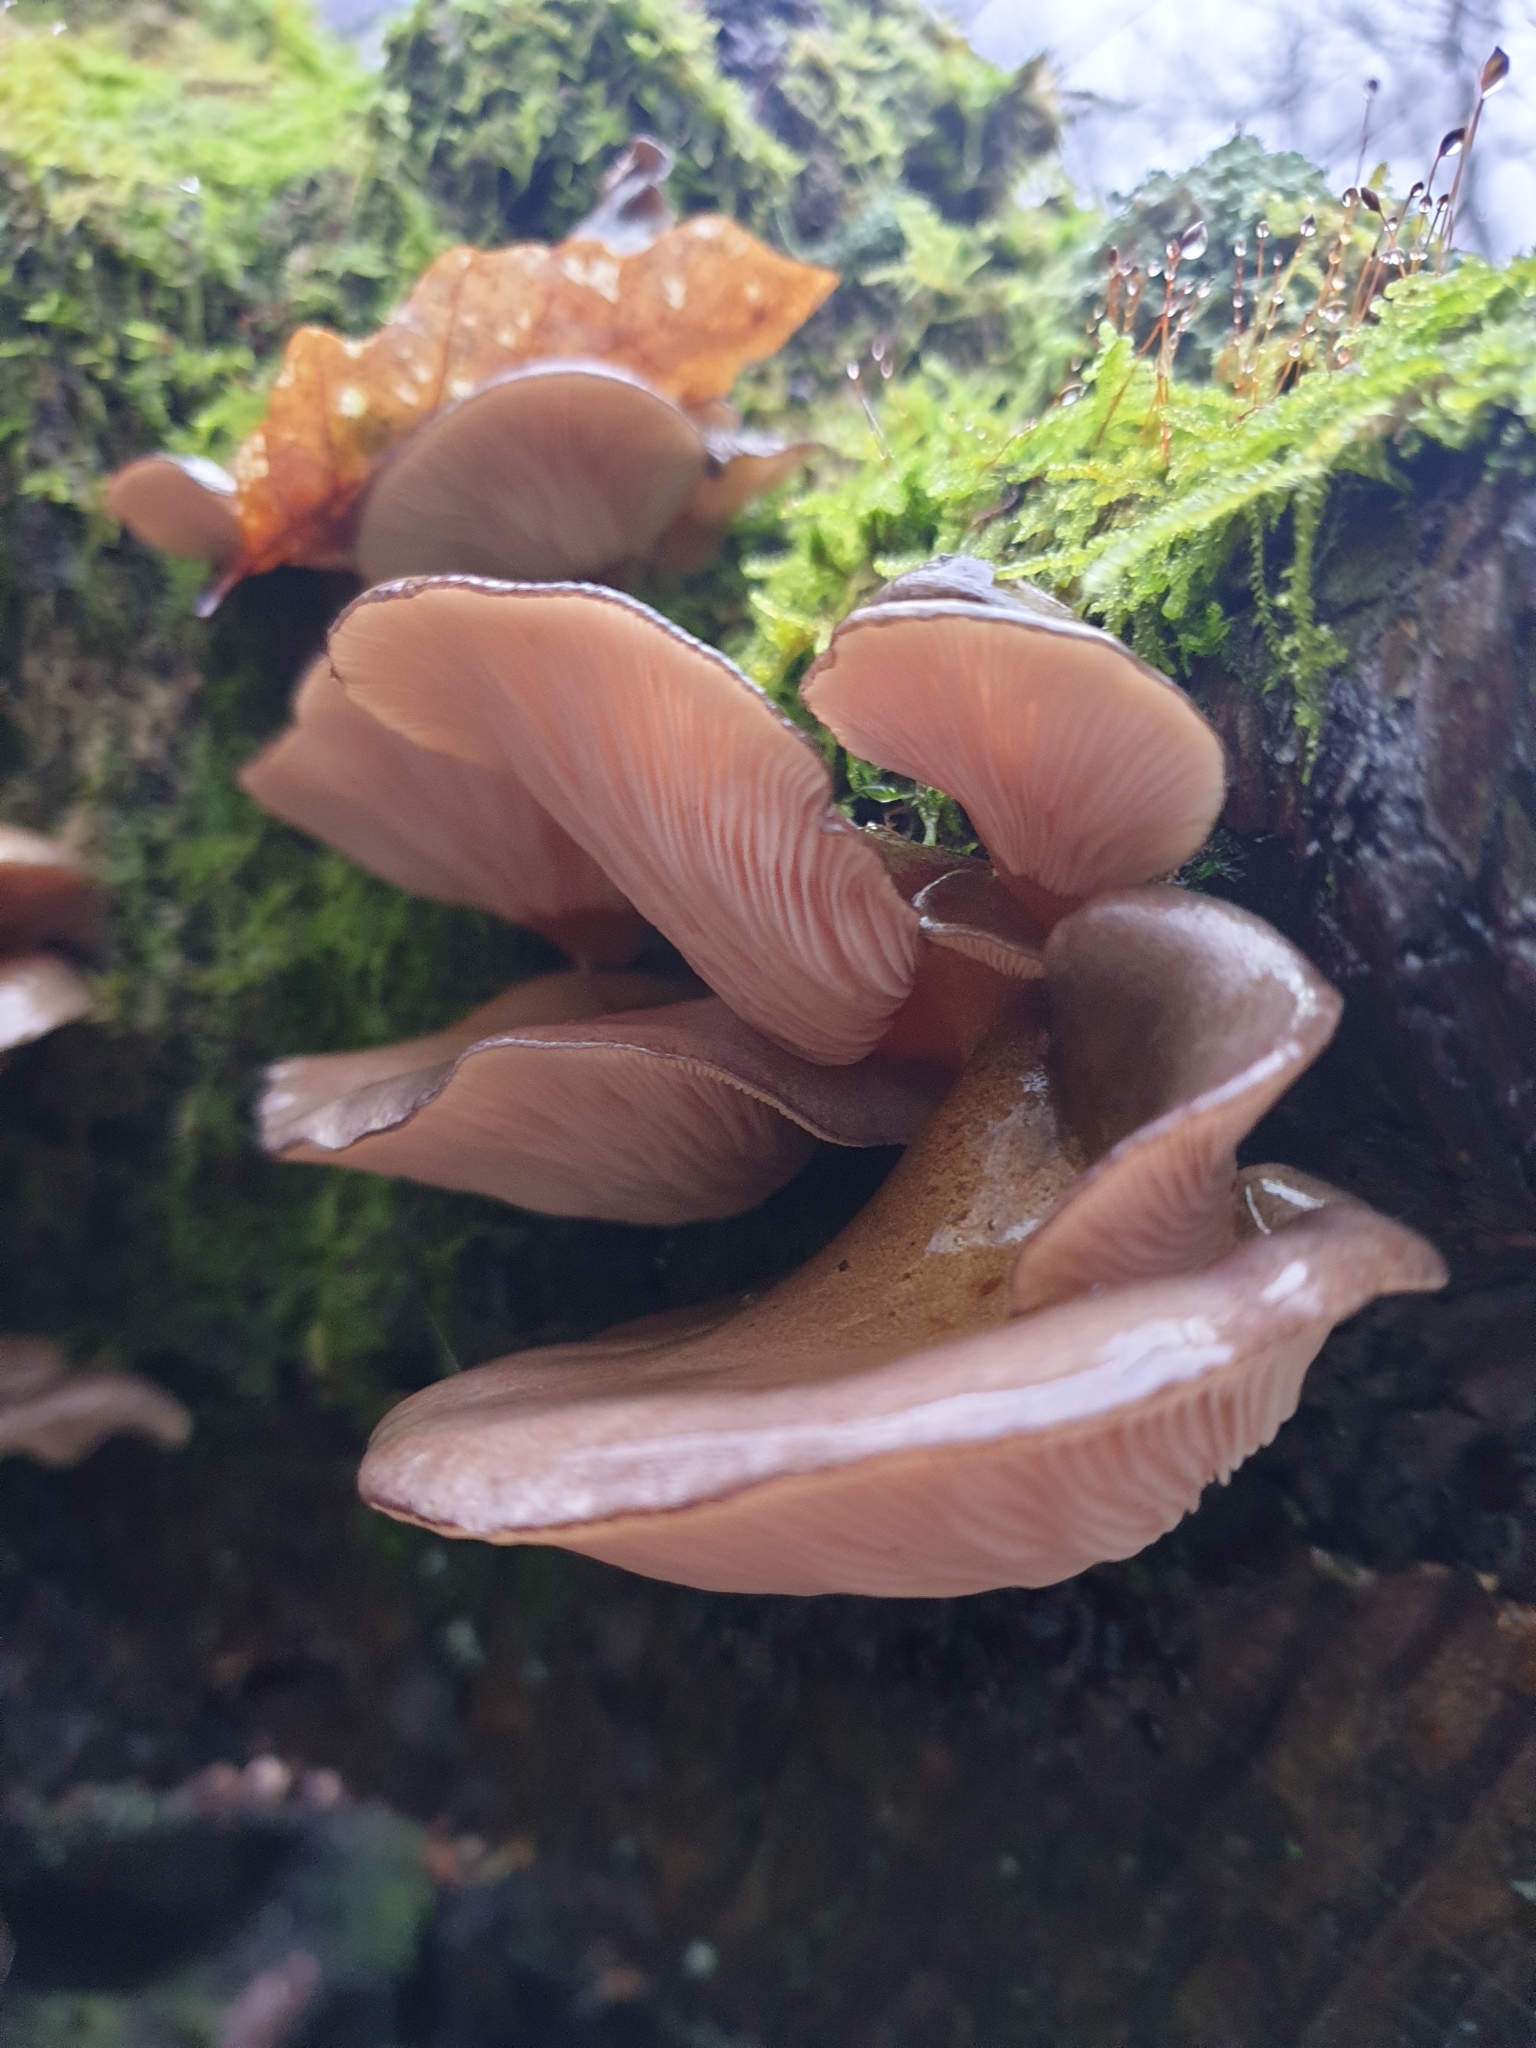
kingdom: Fungi
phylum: Basidiomycota
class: Agaricomycetes
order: Agaricales
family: Sarcomyxaceae
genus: Sarcomyxa
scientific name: Sarcomyxa serotina
